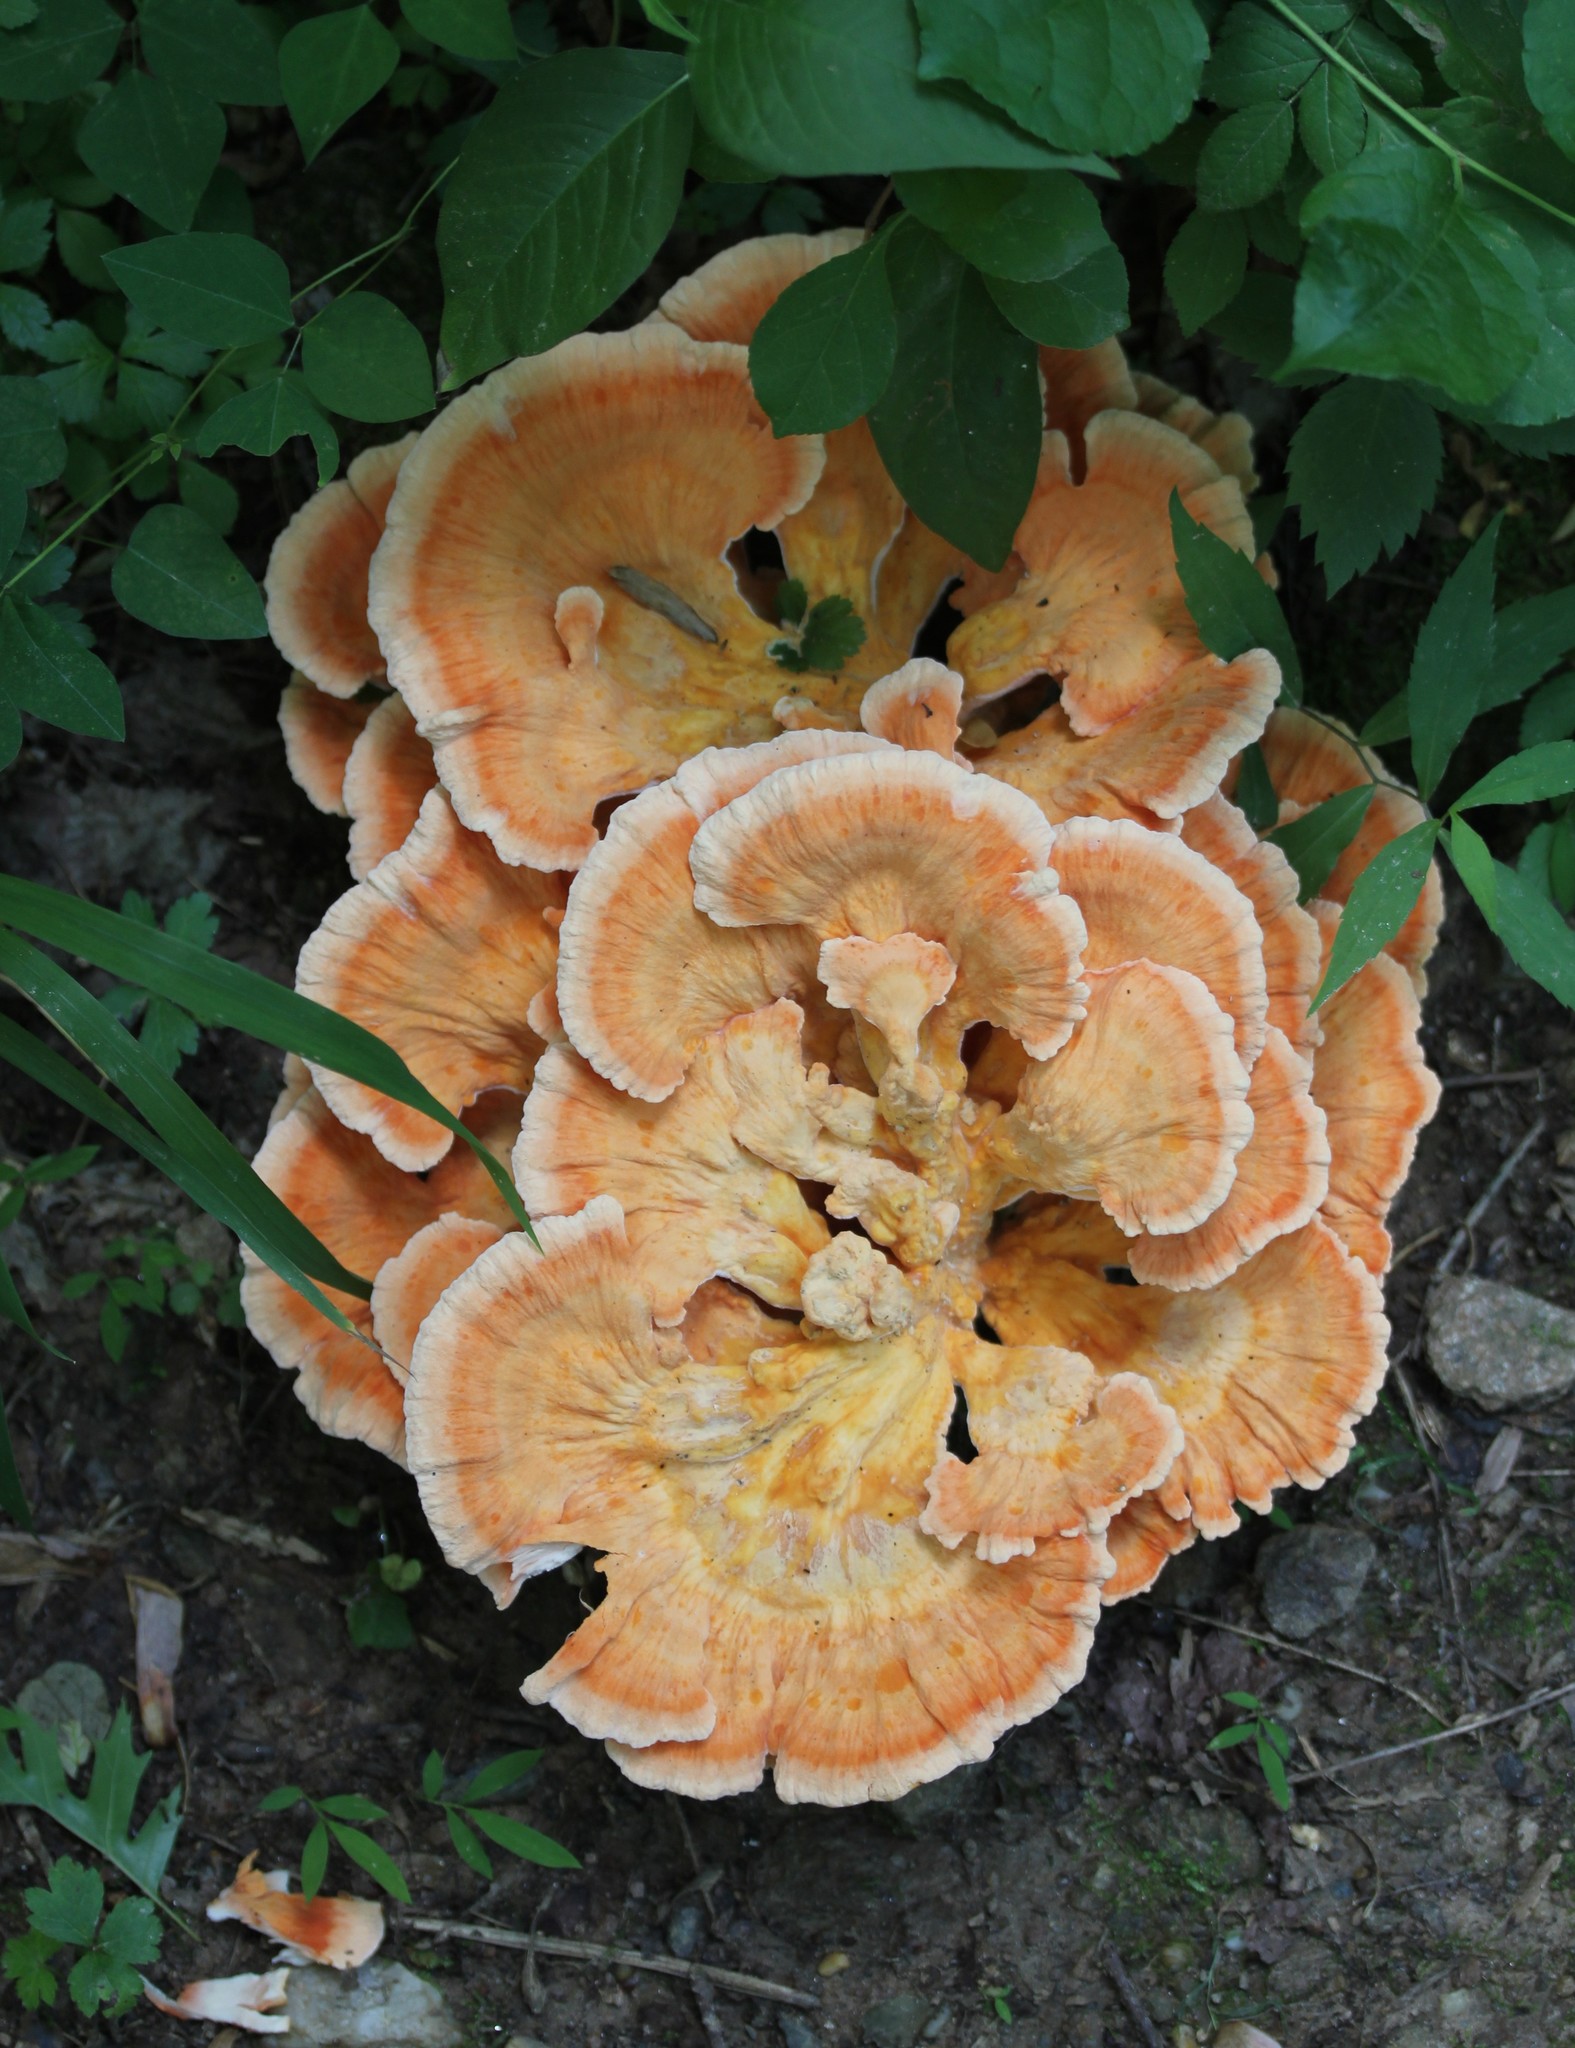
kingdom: Fungi
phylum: Basidiomycota
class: Agaricomycetes
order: Polyporales
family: Laetiporaceae
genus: Laetiporus
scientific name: Laetiporus sulphureus
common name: Chicken of the woods
